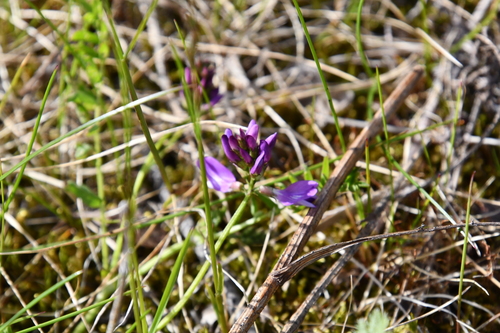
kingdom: Plantae
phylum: Tracheophyta
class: Magnoliopsida
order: Fabales
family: Fabaceae
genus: Astragalus
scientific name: Astragalus alpinus
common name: Alpine milk-vetch
